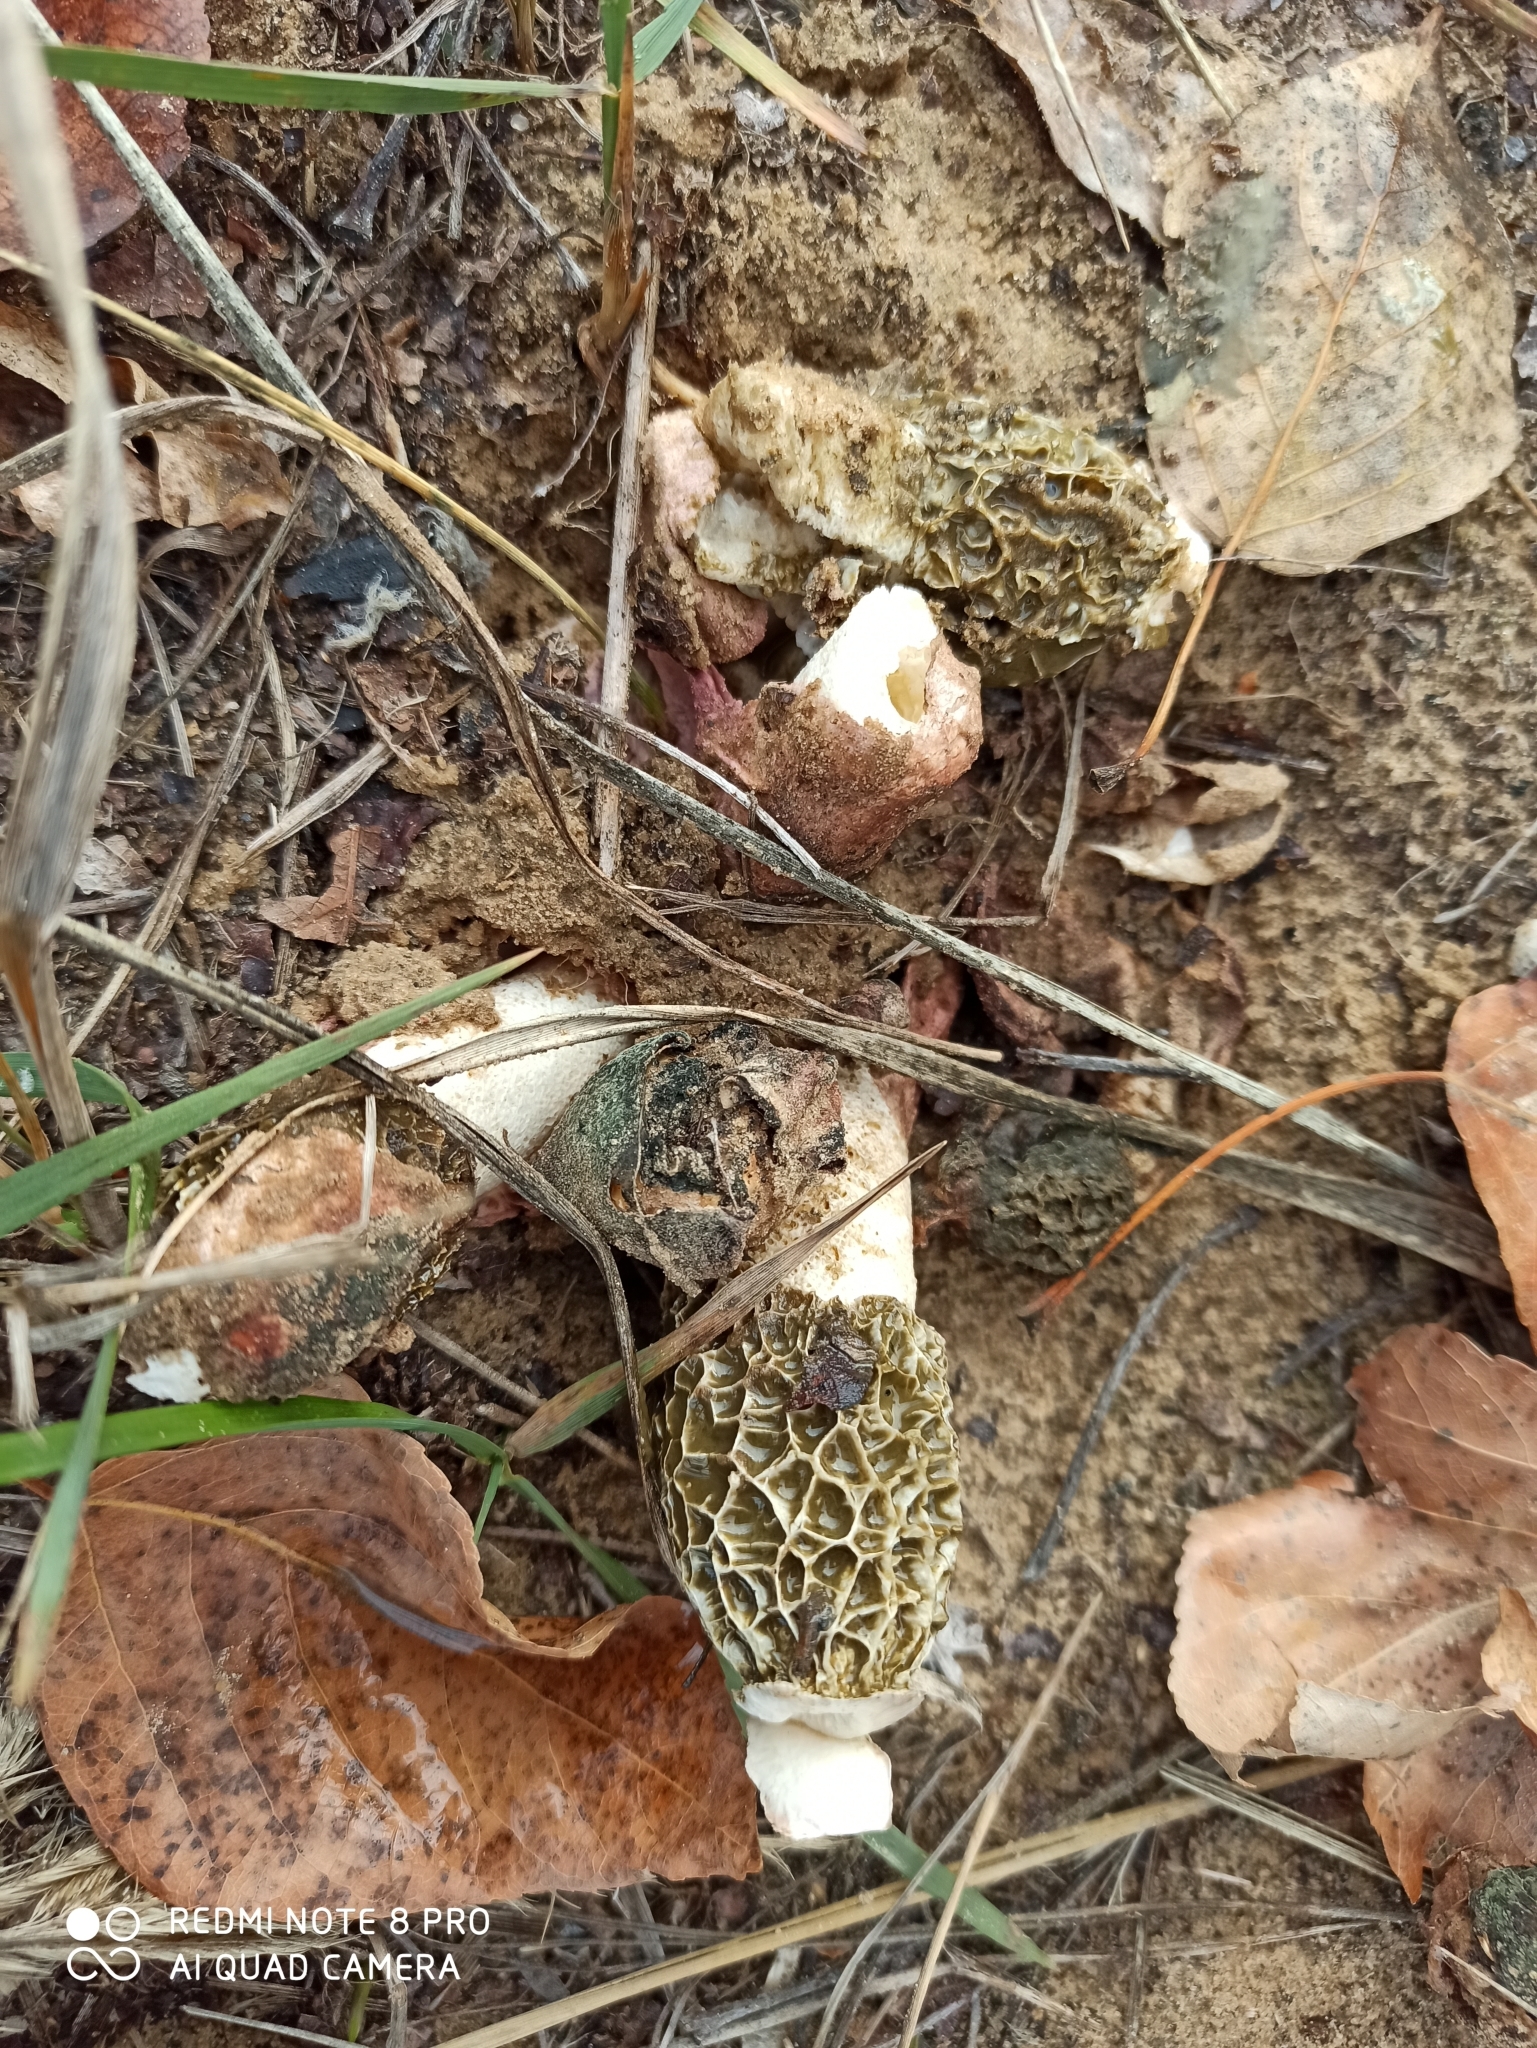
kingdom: Fungi
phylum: Basidiomycota
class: Agaricomycetes
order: Phallales
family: Phallaceae
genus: Phallus
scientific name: Phallus impudicus
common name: Common stinkhorn
